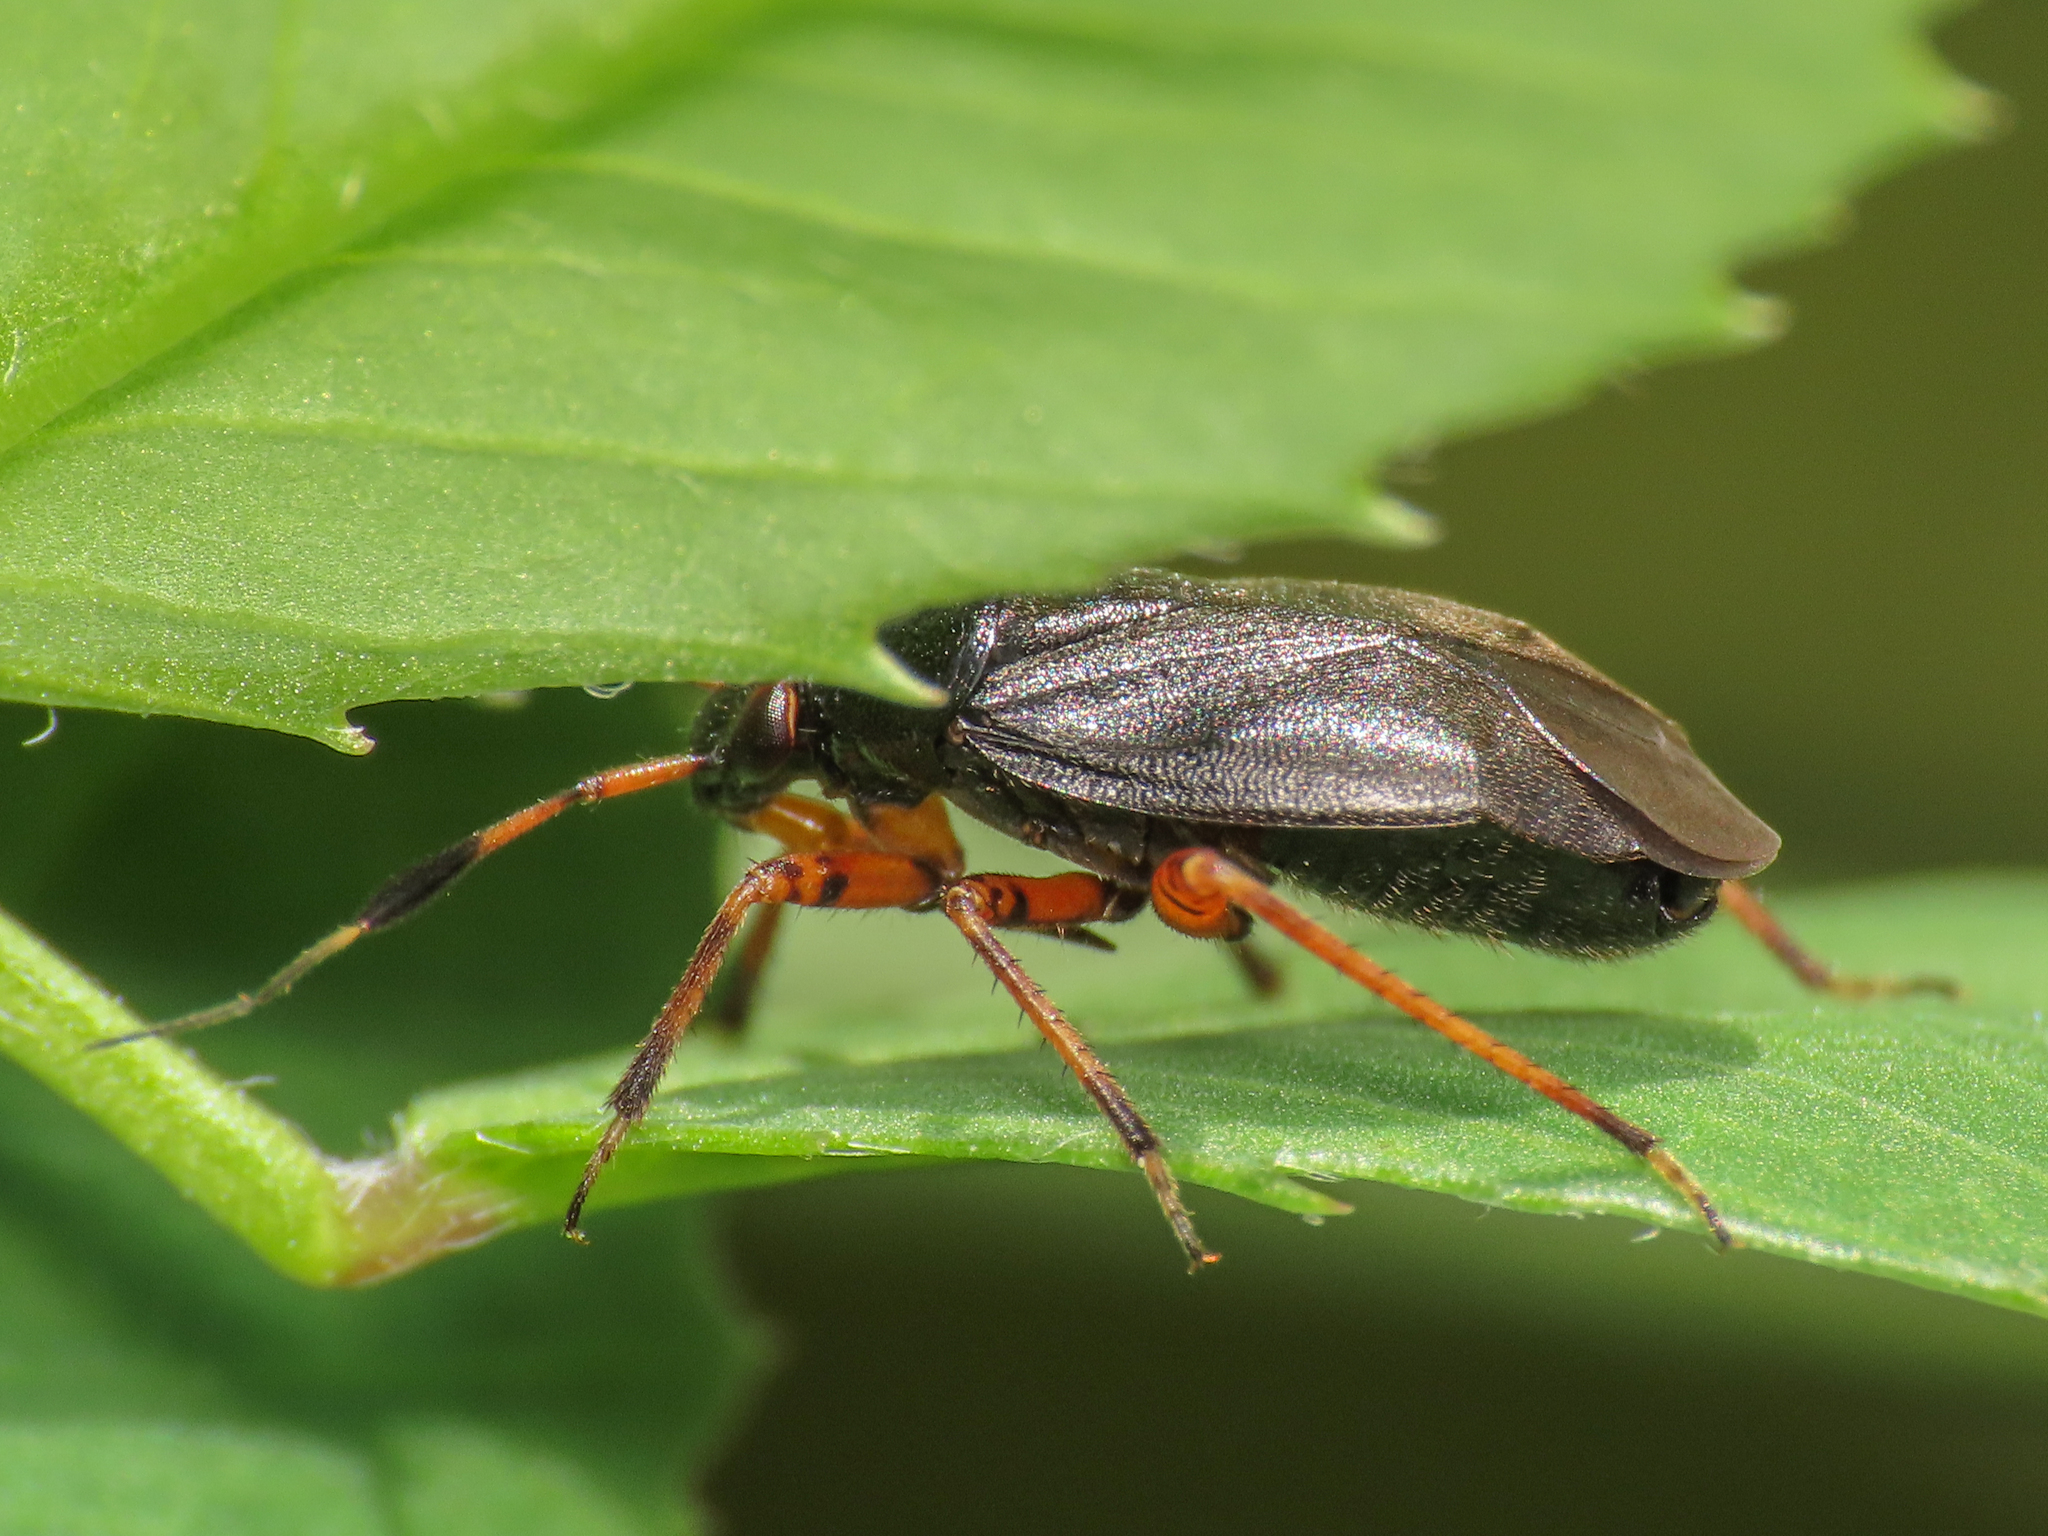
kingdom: Animalia
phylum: Arthropoda
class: Insecta
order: Hemiptera
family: Miridae
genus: Capsus
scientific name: Capsus ater
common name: Black plant bug
